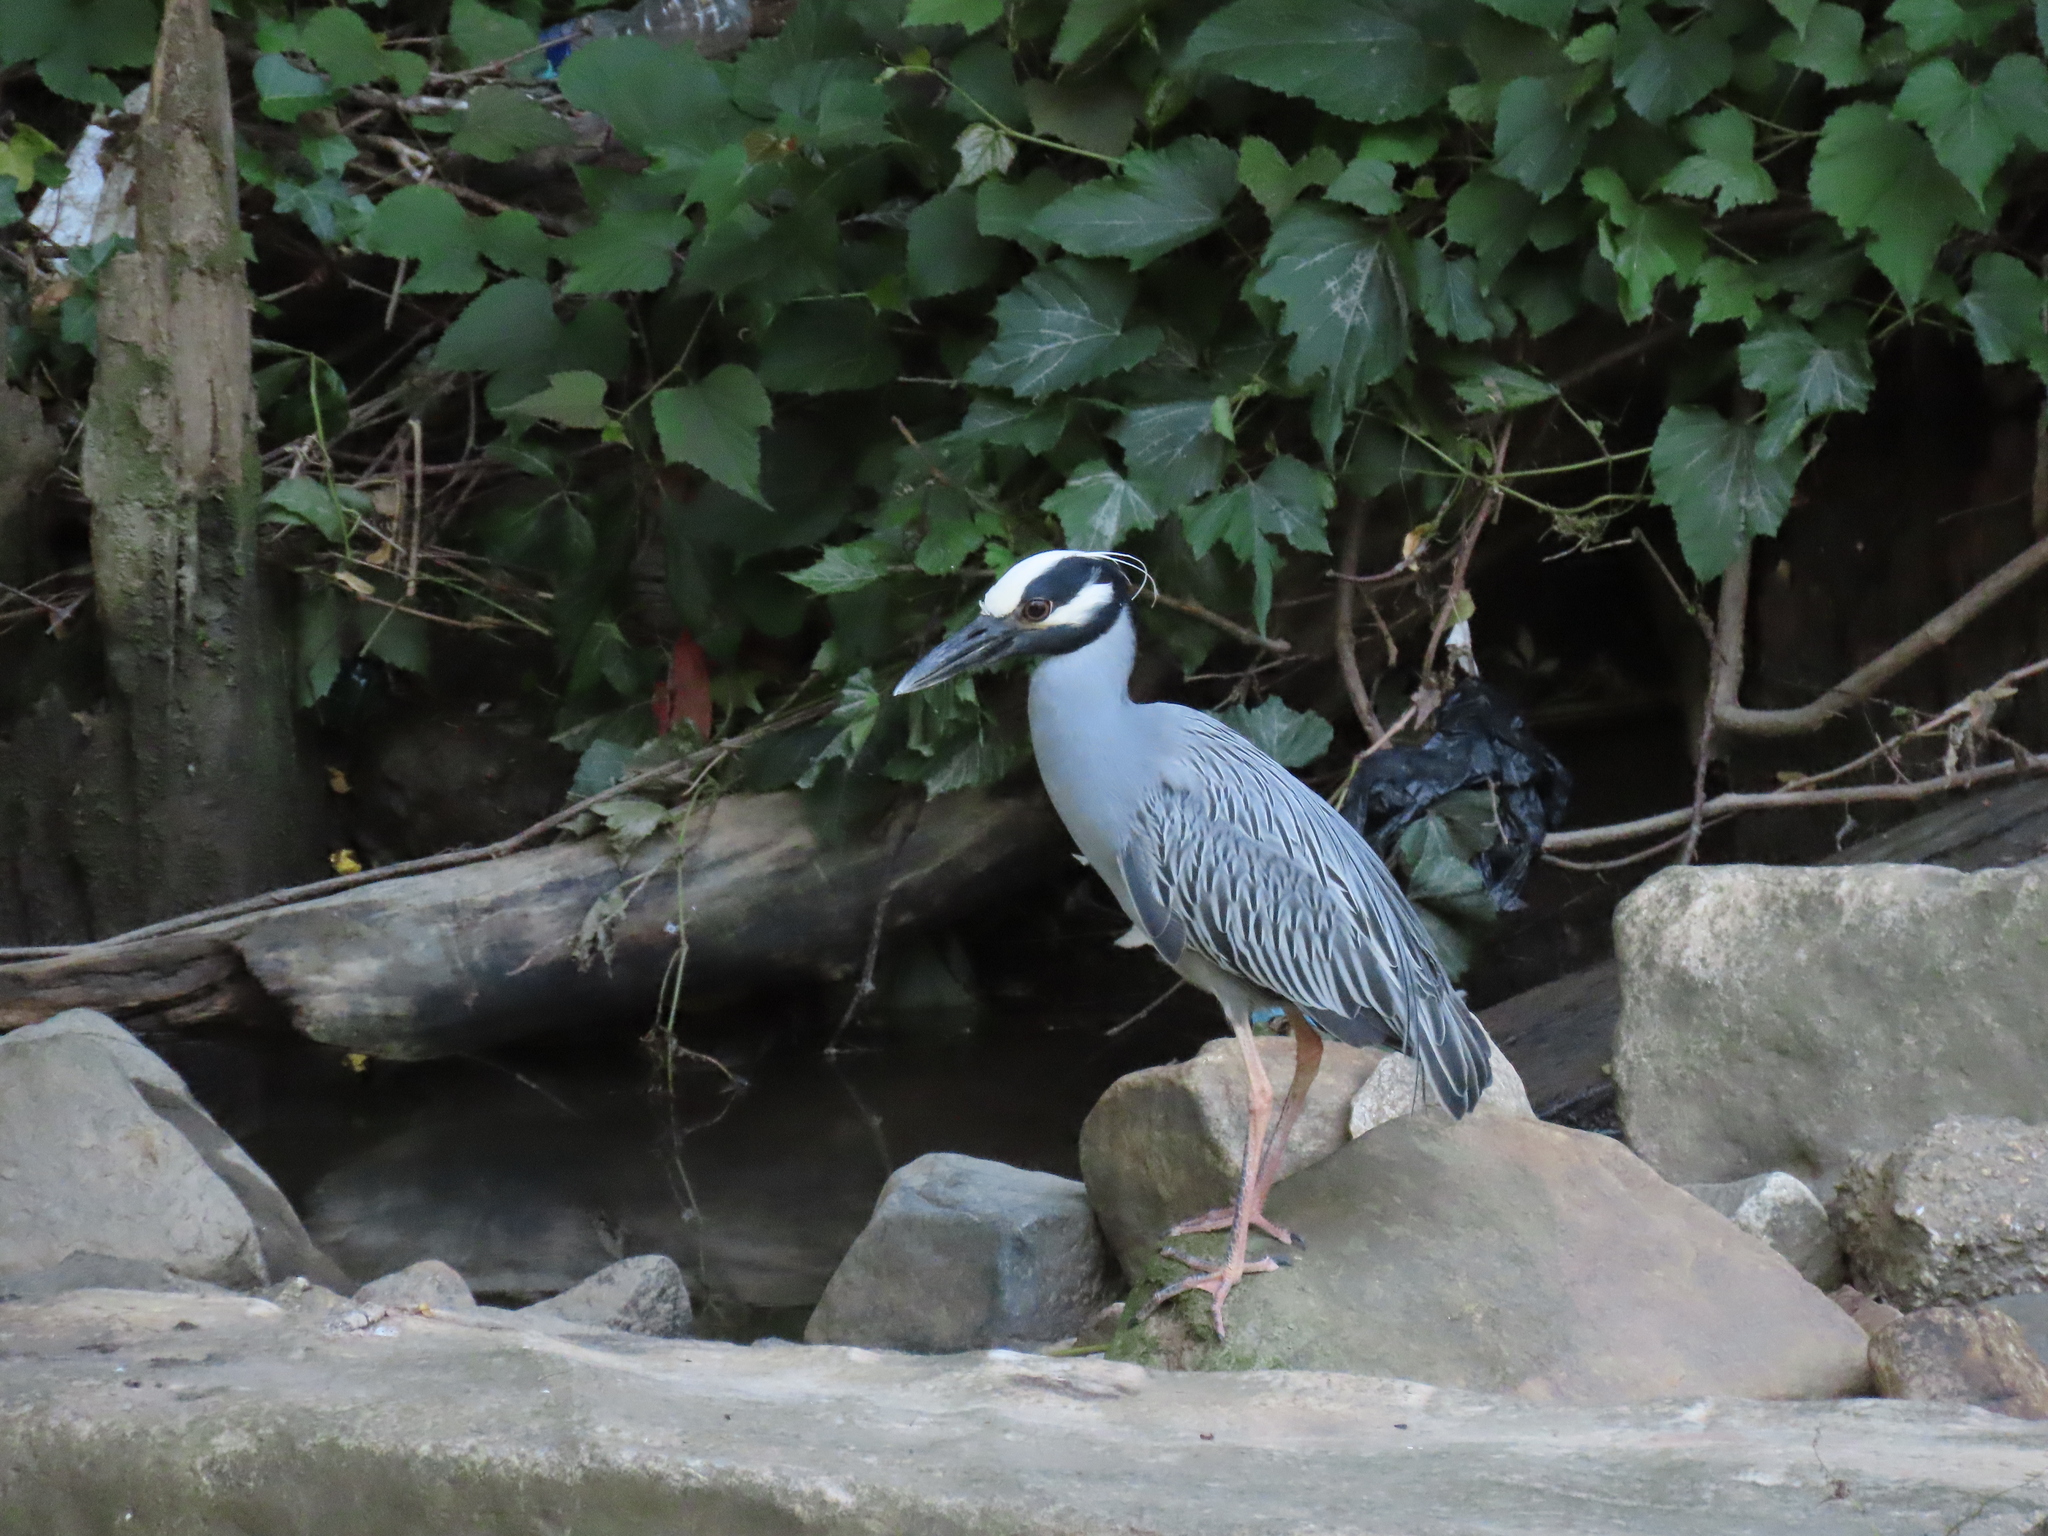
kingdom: Animalia
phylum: Chordata
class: Aves
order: Pelecaniformes
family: Ardeidae
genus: Nyctanassa
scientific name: Nyctanassa violacea
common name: Yellow-crowned night heron
